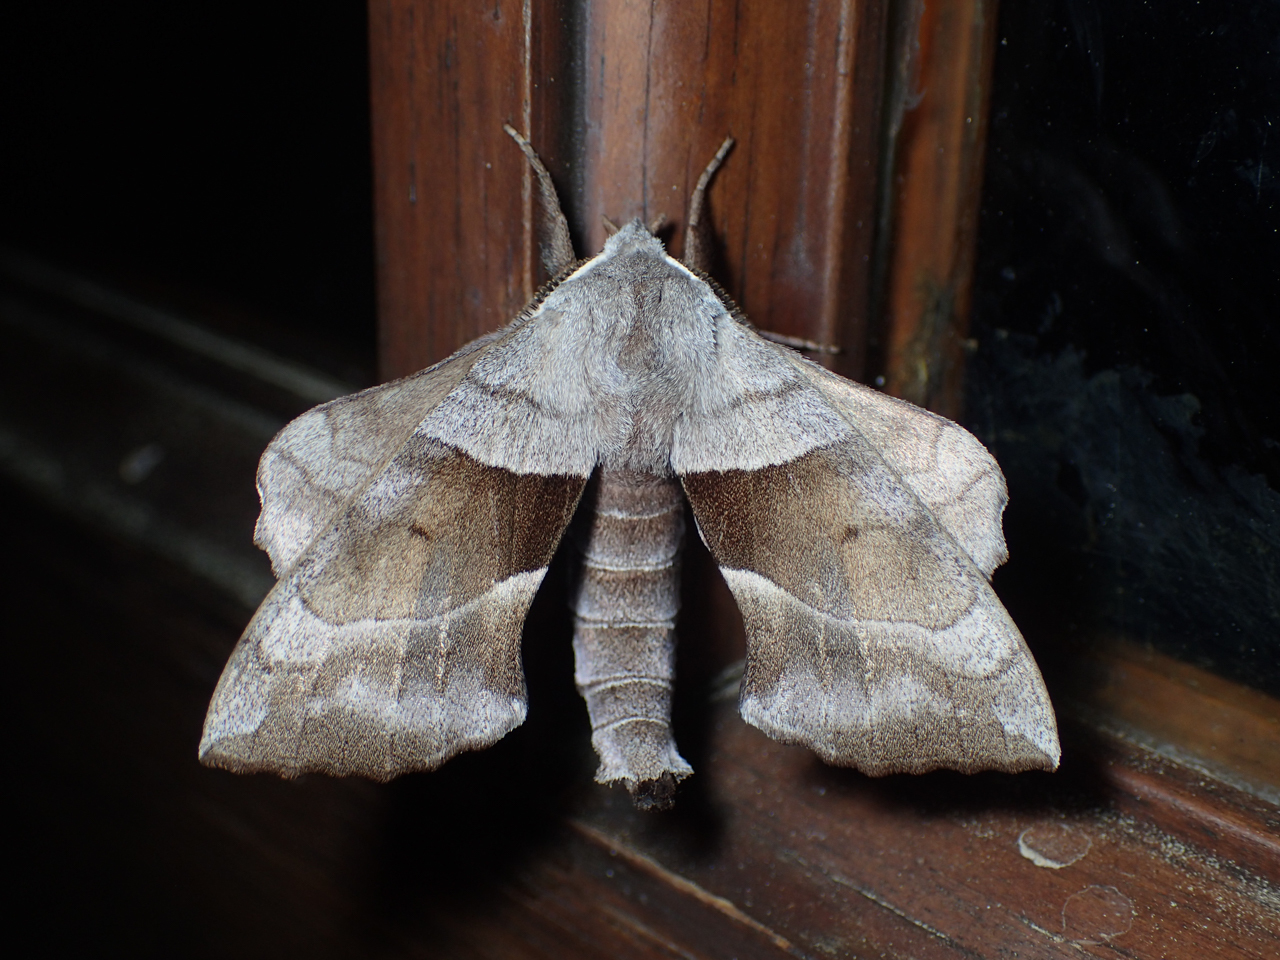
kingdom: Animalia
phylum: Arthropoda
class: Insecta
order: Lepidoptera
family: Sphingidae
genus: Amorpha
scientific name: Amorpha juglandis
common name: Walnut sphinx
